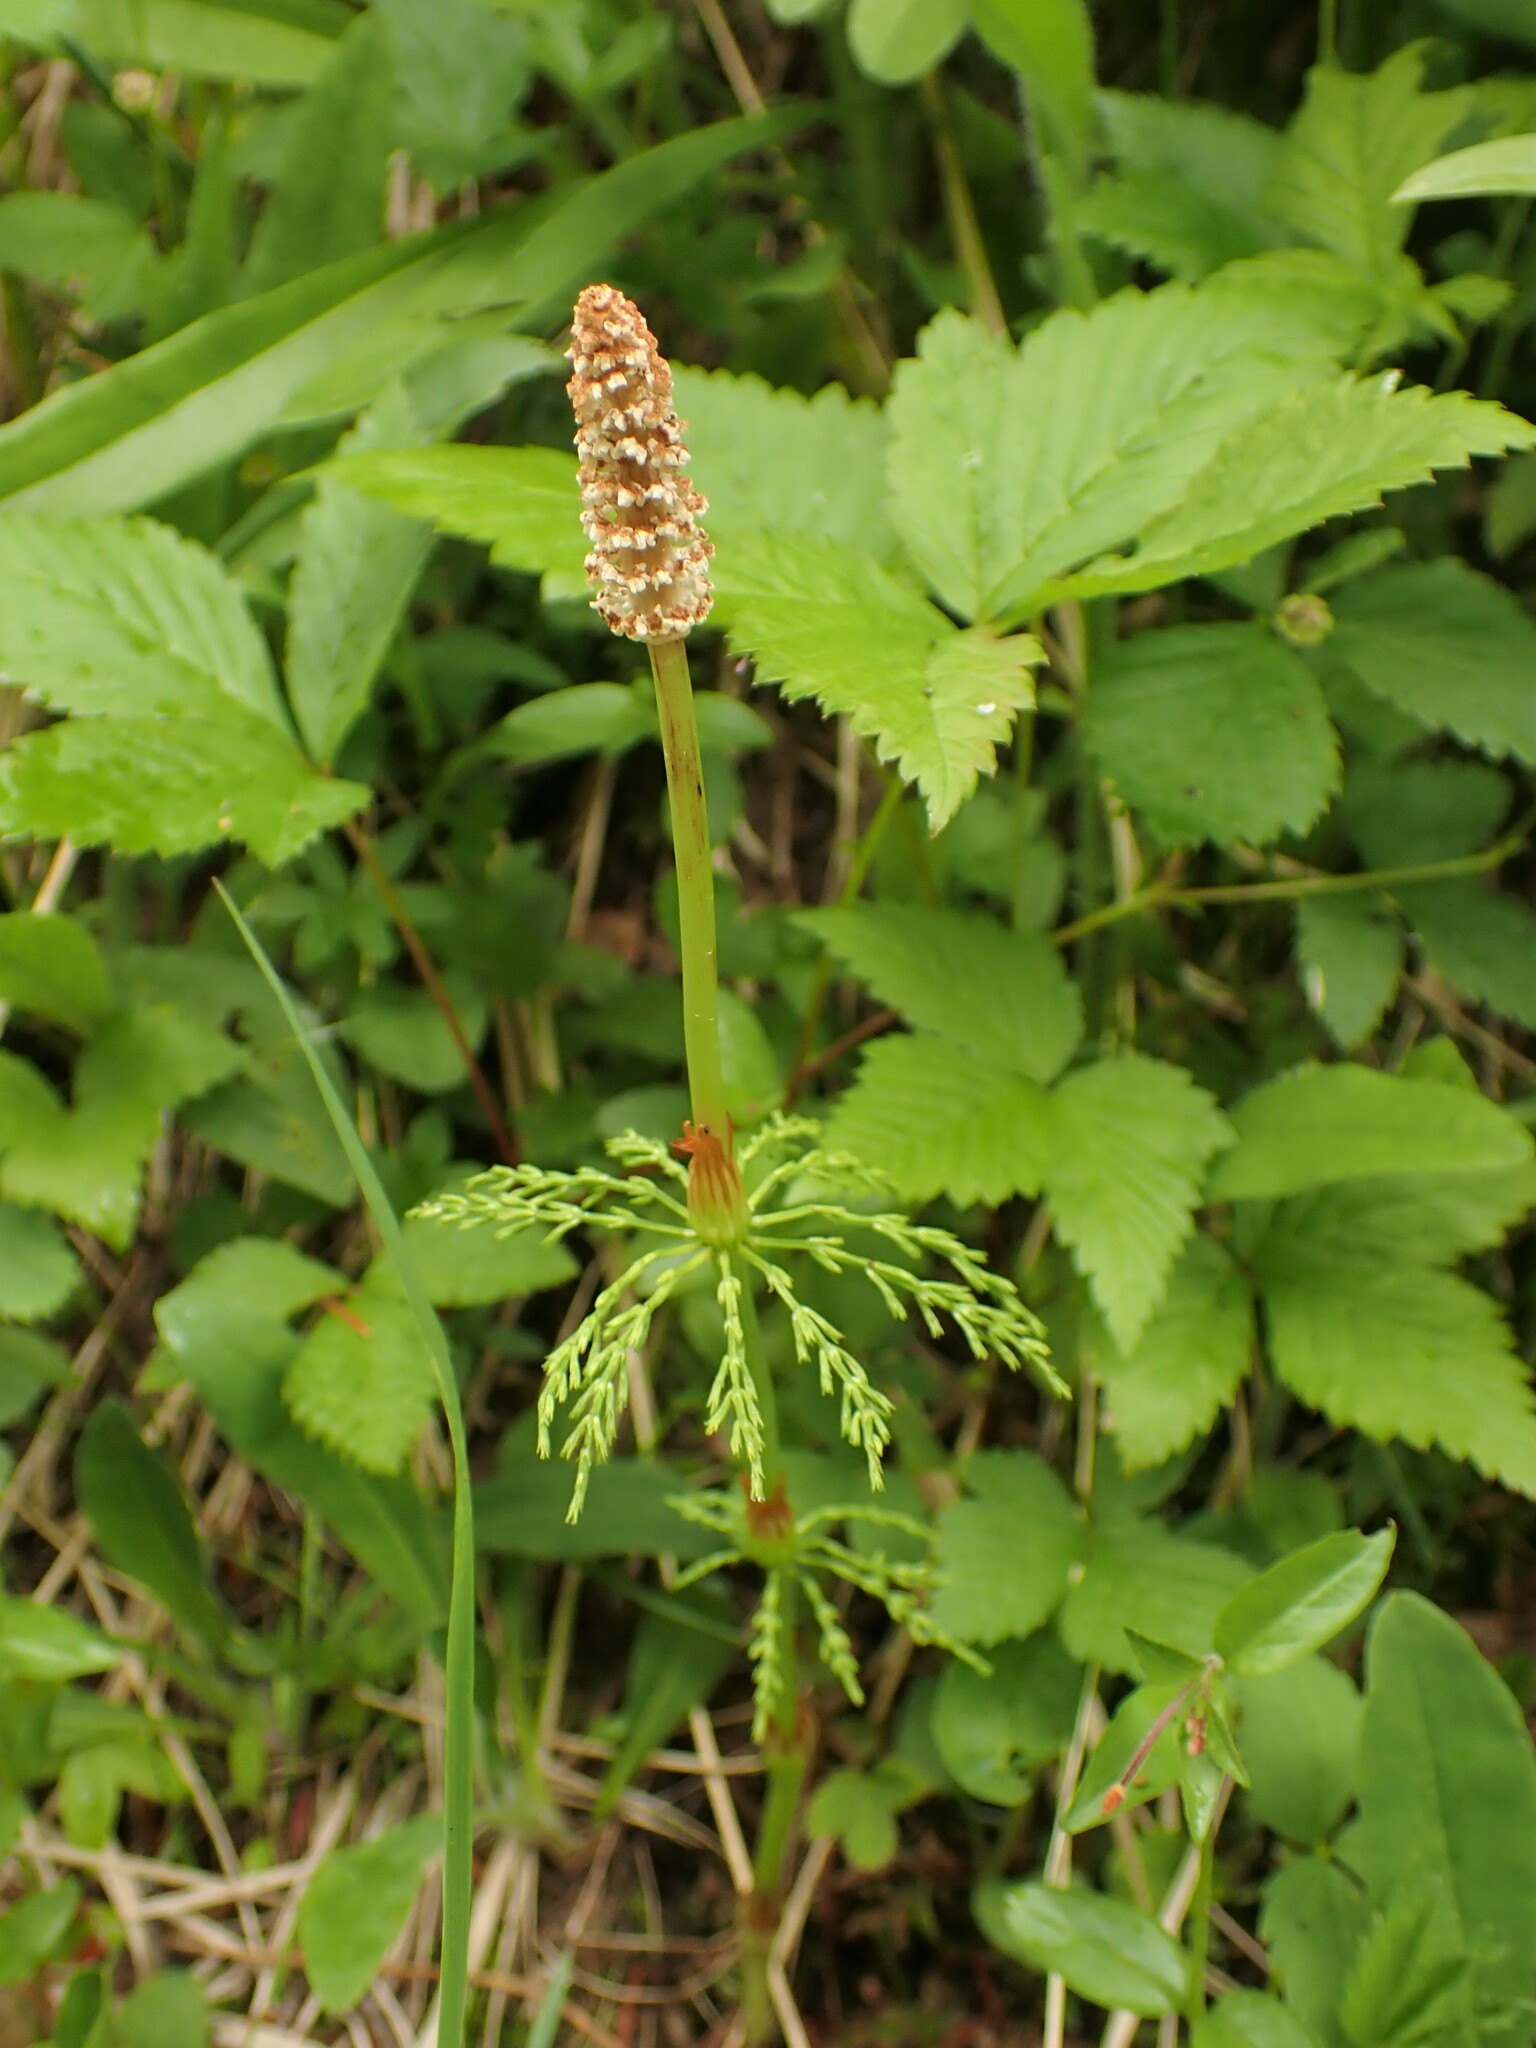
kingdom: Plantae
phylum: Tracheophyta
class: Polypodiopsida
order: Equisetales
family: Equisetaceae
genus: Equisetum
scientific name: Equisetum sylvaticum
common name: Wood horsetail
